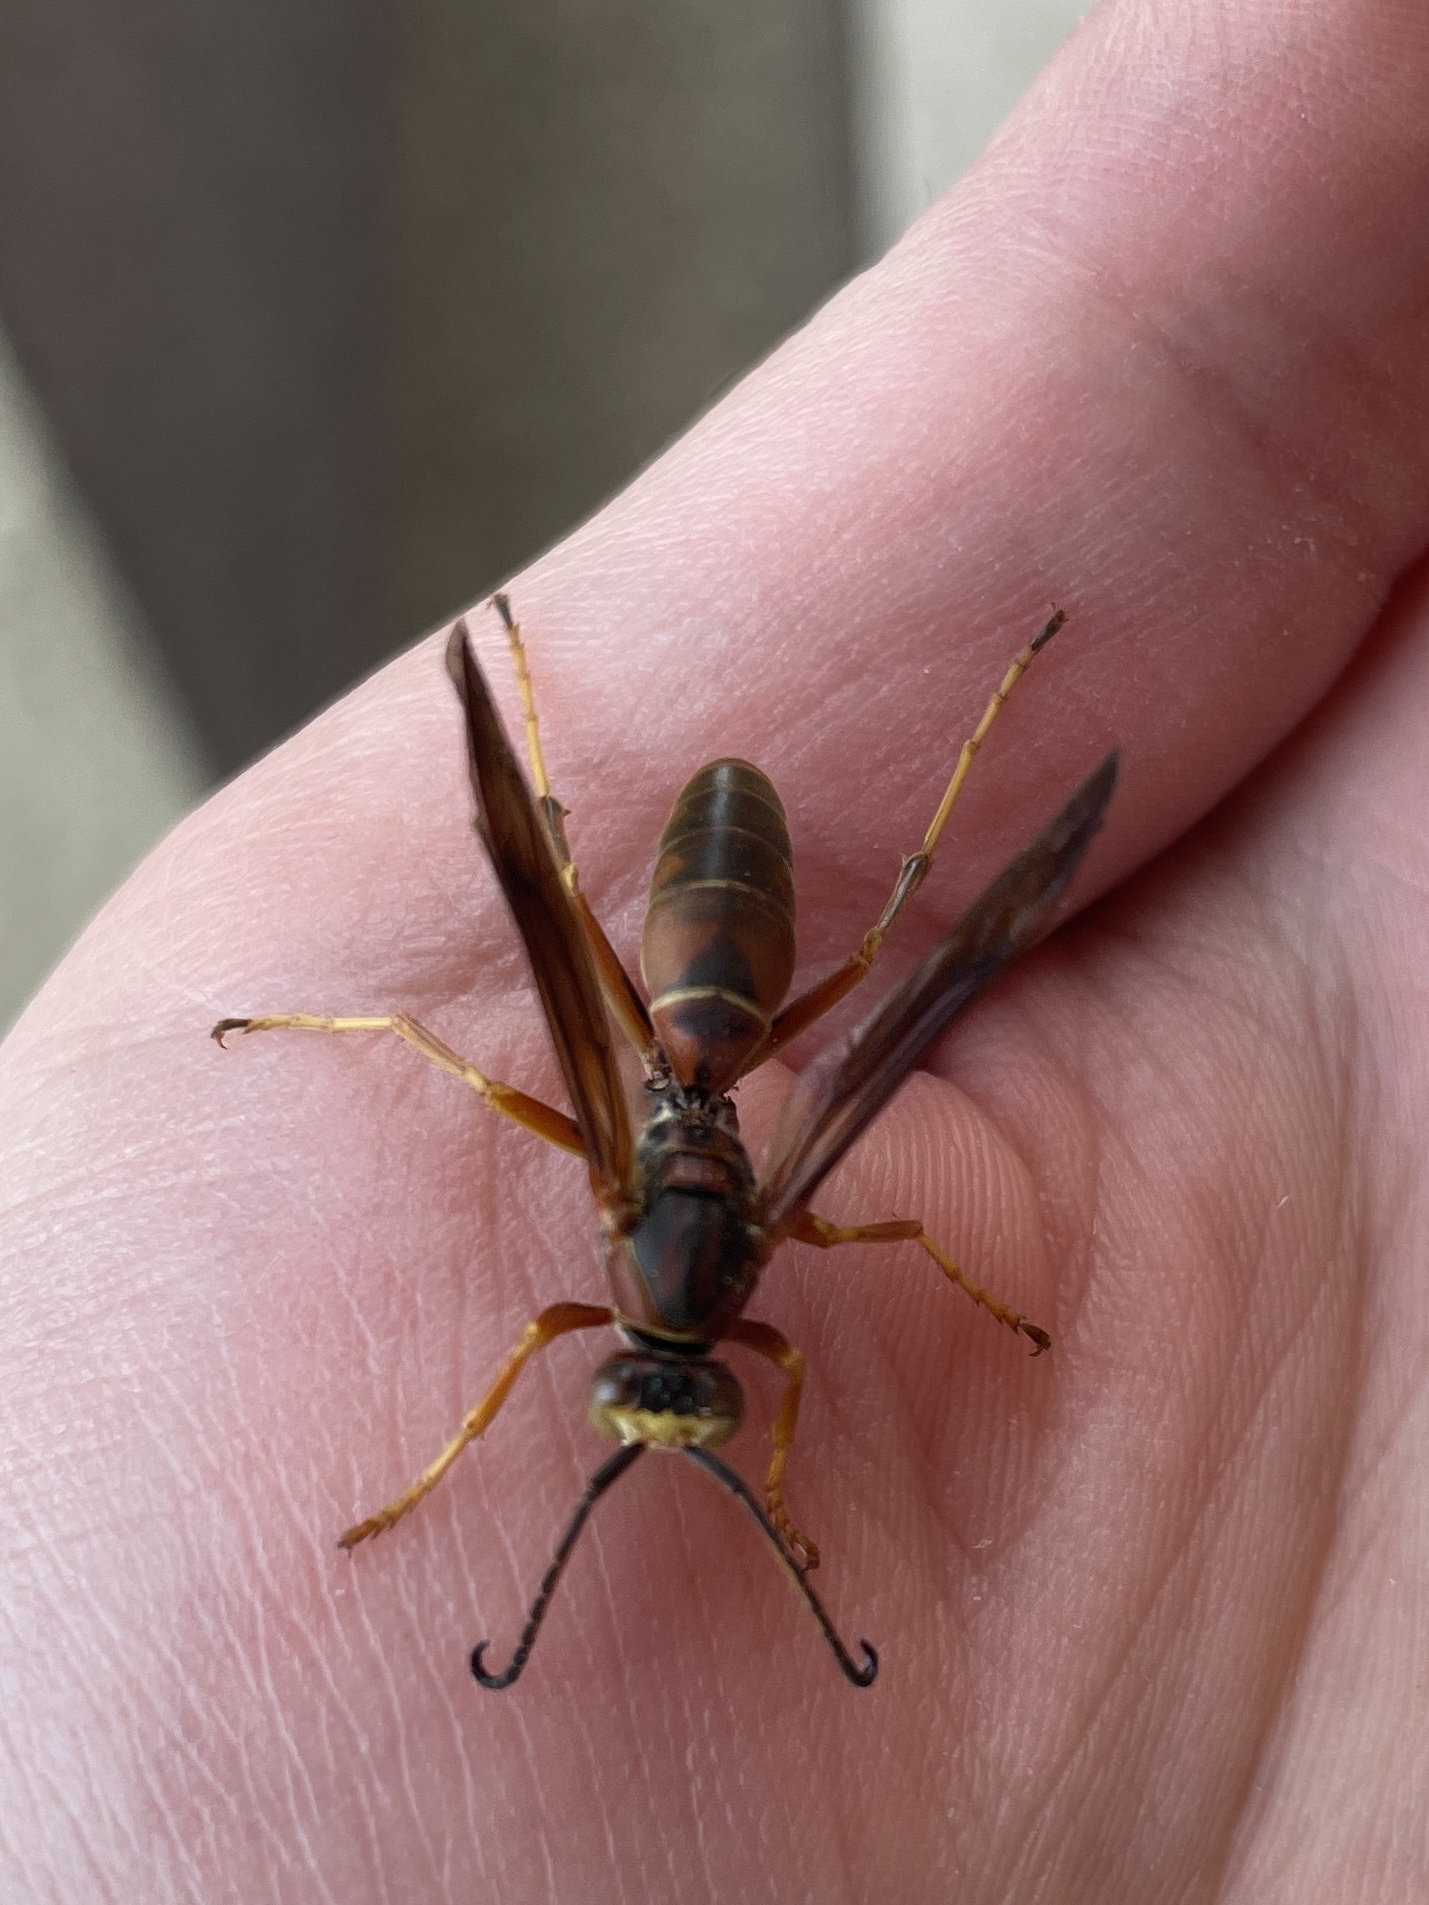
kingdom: Animalia
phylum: Arthropoda
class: Insecta
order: Hymenoptera
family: Eumenidae
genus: Polistes
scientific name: Polistes fuscatus
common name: Dark paper wasp
